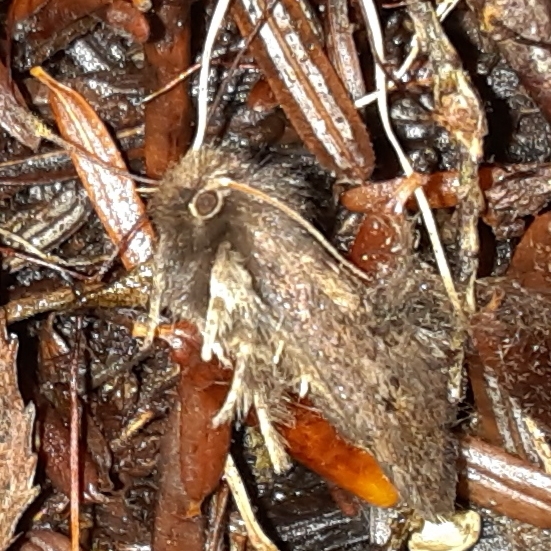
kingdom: Animalia
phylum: Arthropoda
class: Insecta
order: Lepidoptera
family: Tineidae
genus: Acrolophus
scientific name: Acrolophus mora
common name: Dark acrolophus
